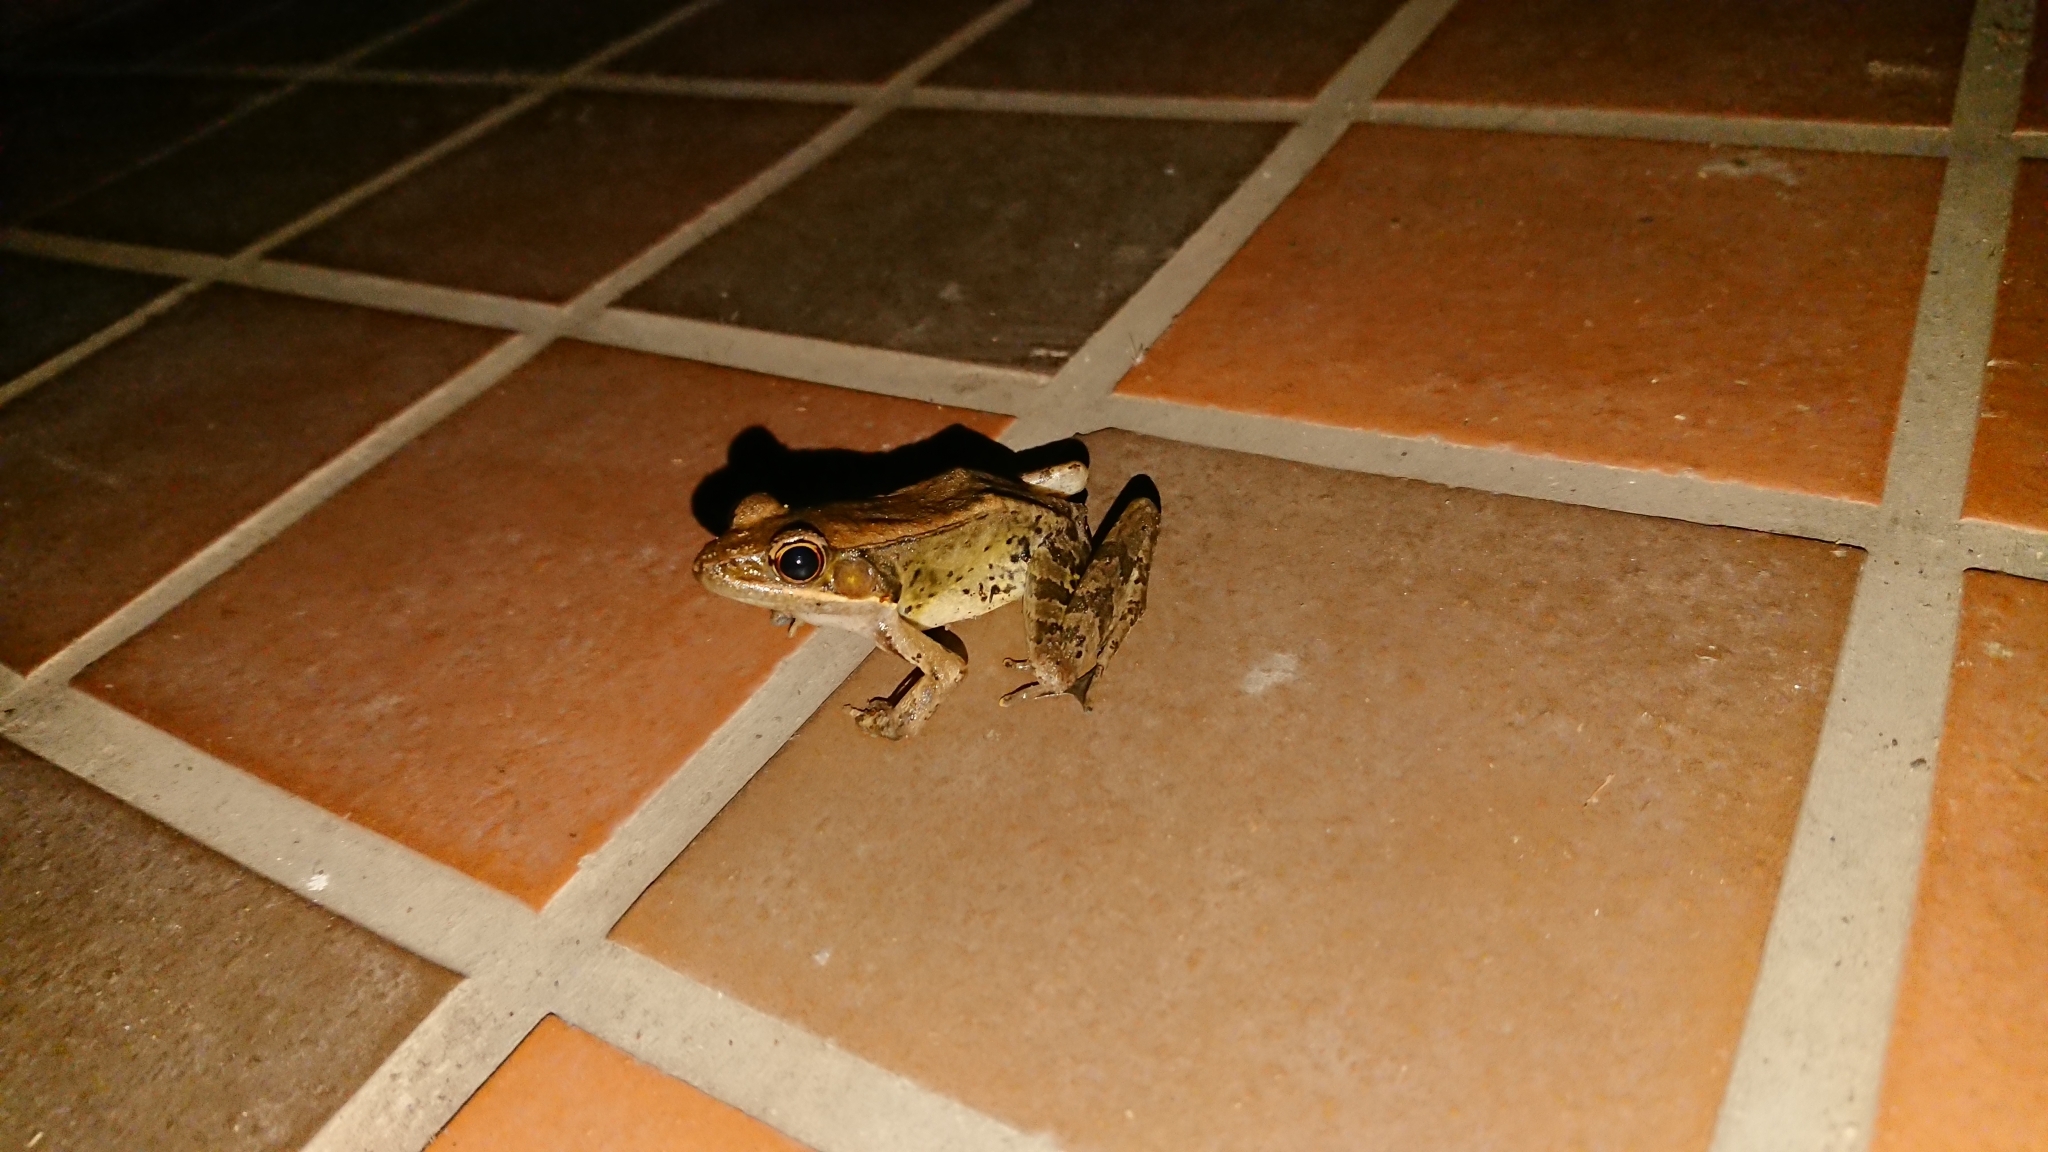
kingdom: Animalia
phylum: Chordata
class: Amphibia
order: Anura
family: Ranidae
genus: Nidirana
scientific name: Nidirana adenopleura
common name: Olive frog
